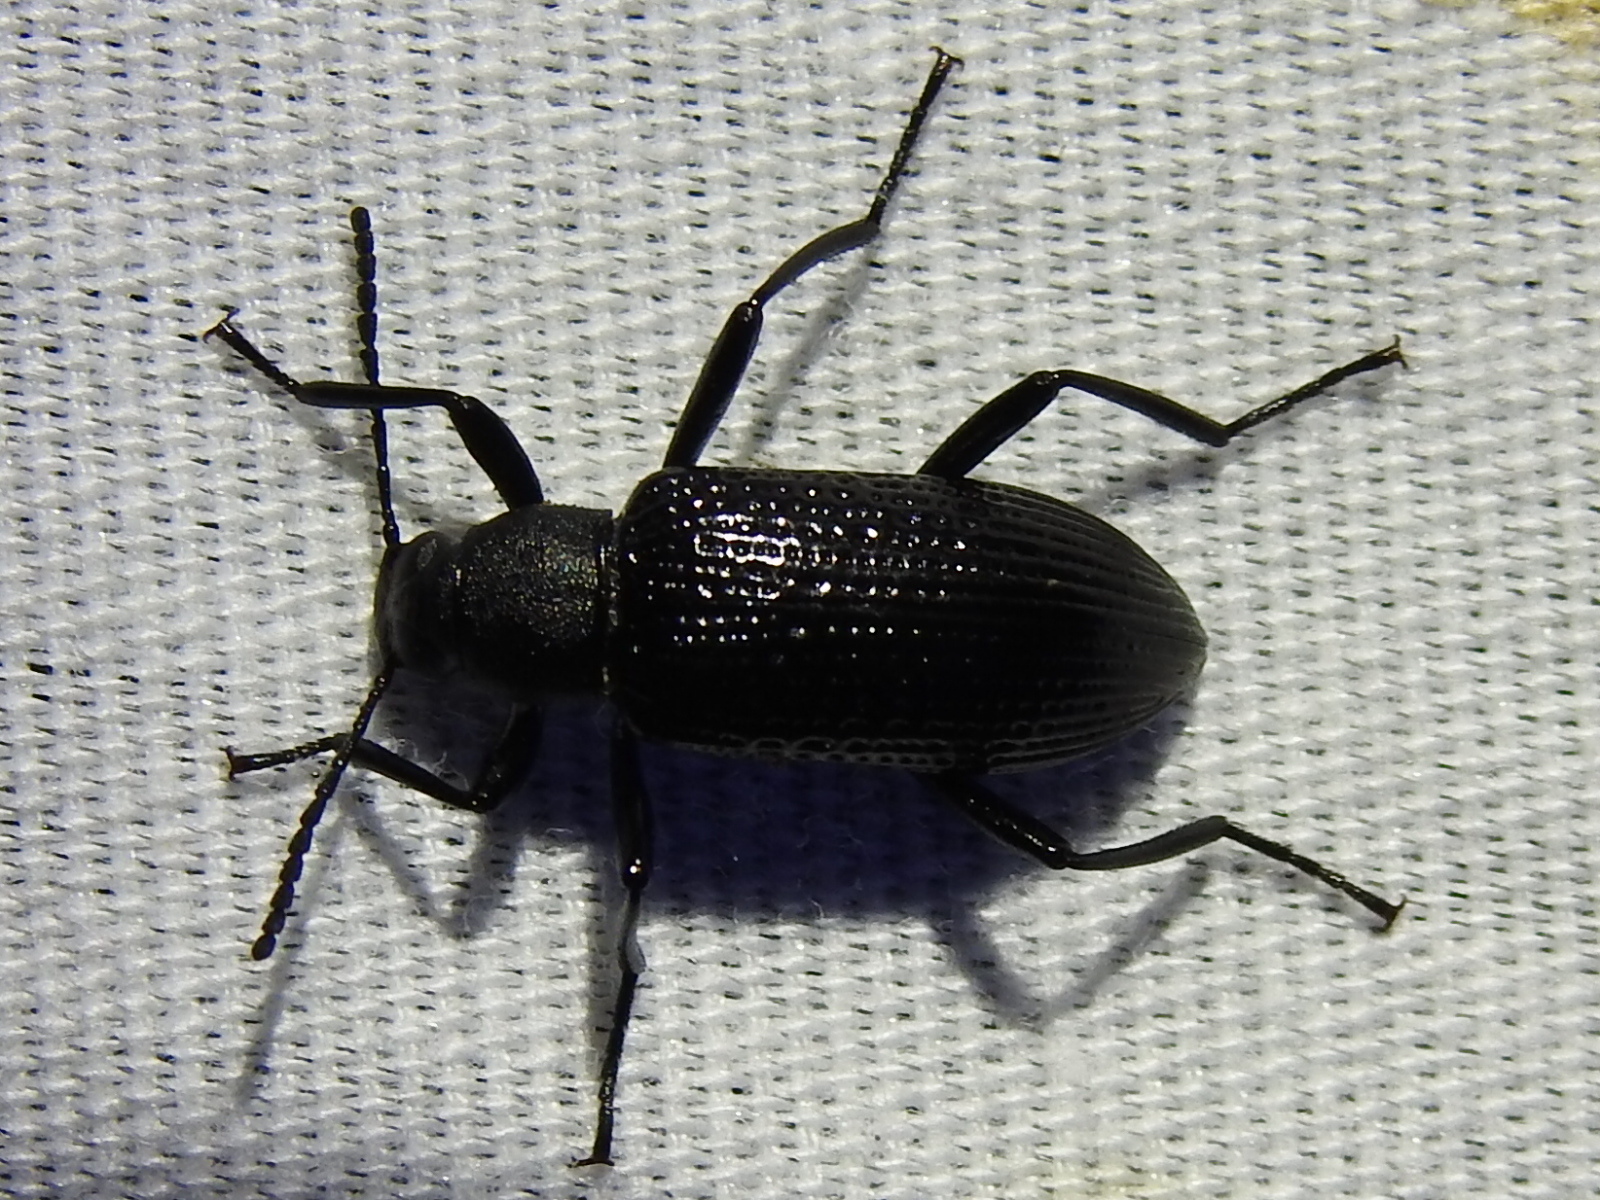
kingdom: Animalia
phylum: Arthropoda
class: Insecta
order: Coleoptera
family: Tenebrionidae
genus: Strongylium
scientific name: Strongylium hemistriatum
